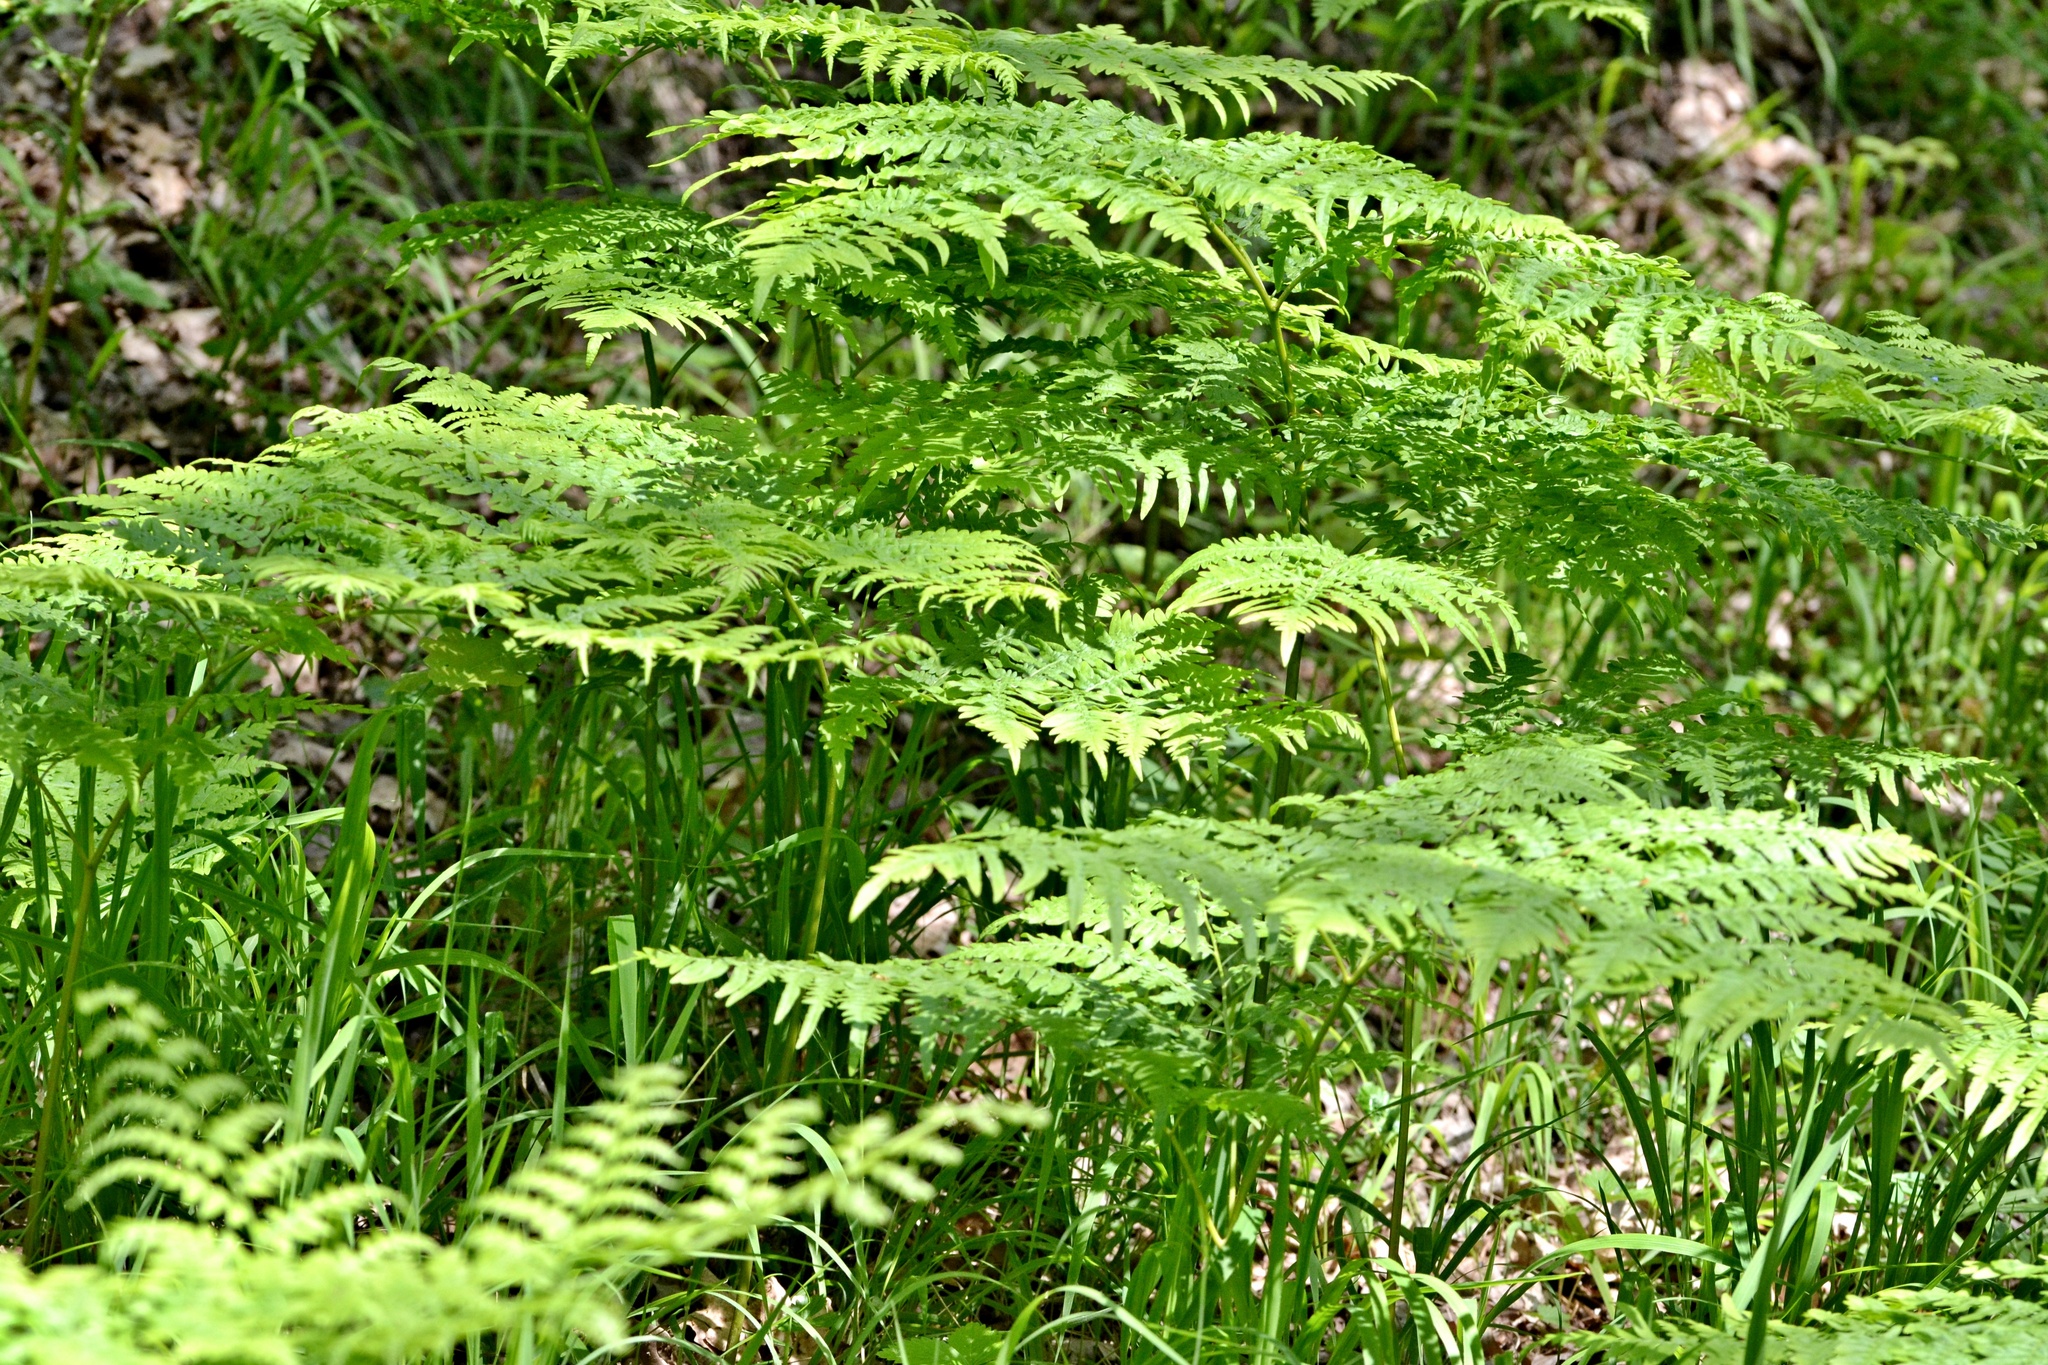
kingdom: Plantae
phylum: Tracheophyta
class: Polypodiopsida
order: Polypodiales
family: Dennstaedtiaceae
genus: Pteridium
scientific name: Pteridium aquilinum
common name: Bracken
